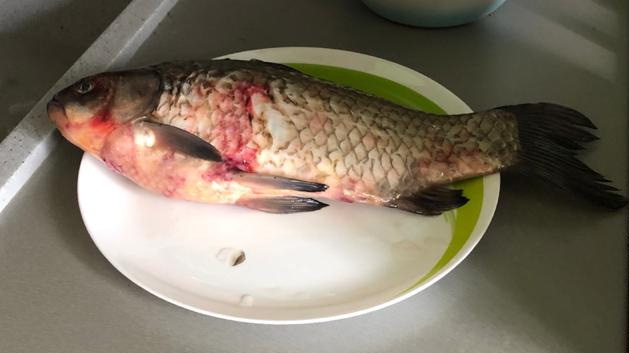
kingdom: Animalia
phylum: Chordata
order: Cypriniformes
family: Cyprinidae
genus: Carassius
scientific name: Carassius gibelio
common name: Prussian carp
